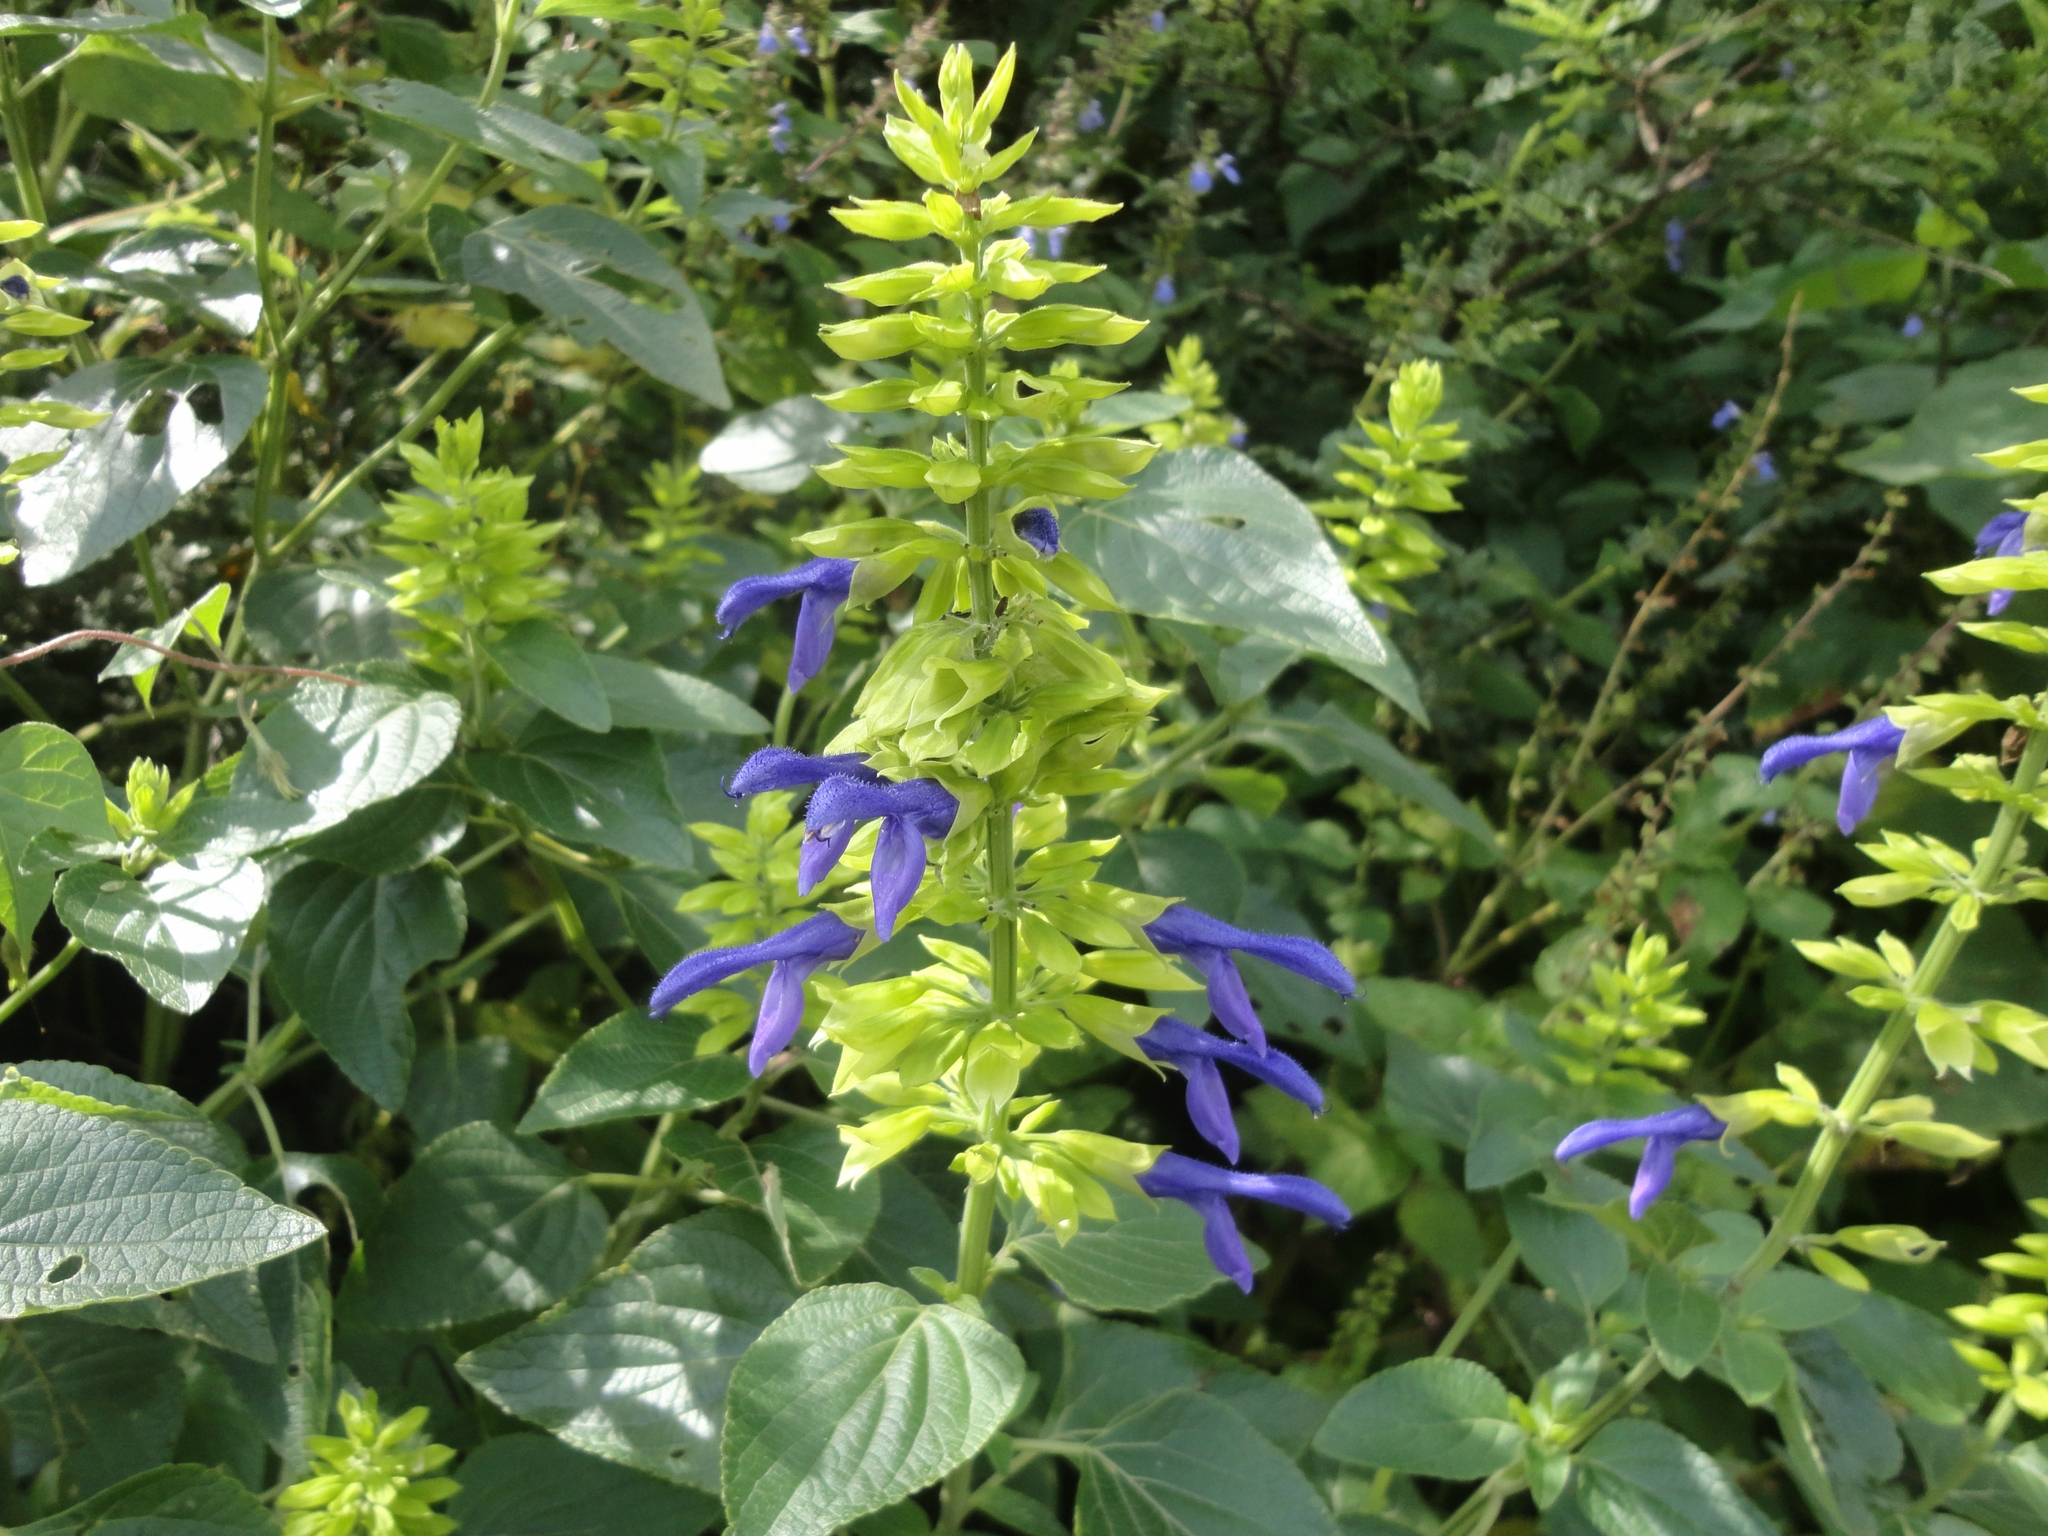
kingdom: Plantae
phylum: Tracheophyta
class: Magnoliopsida
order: Lamiales
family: Lamiaceae
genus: Salvia
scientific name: Salvia mexicana
